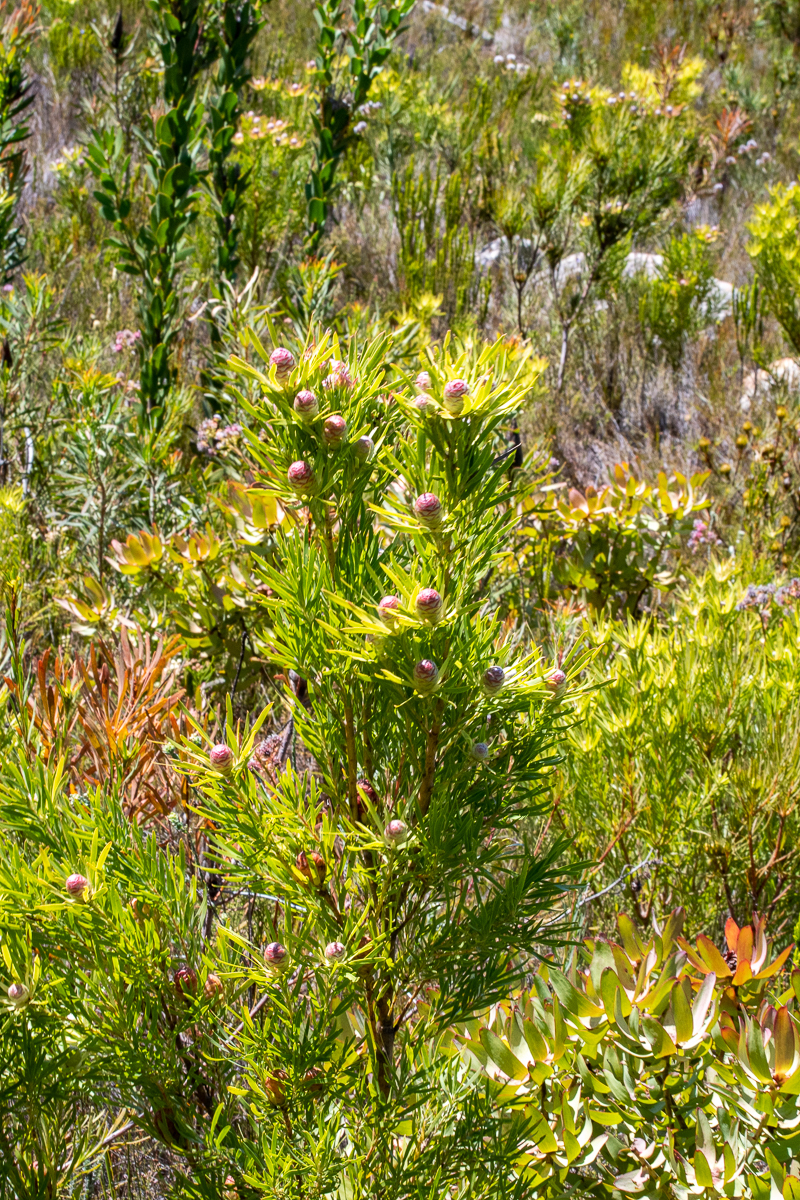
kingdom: Plantae
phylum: Tracheophyta
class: Magnoliopsida
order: Proteales
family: Proteaceae
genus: Leucadendron
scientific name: Leucadendron xanthoconus
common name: Sickle-leaf conebush
